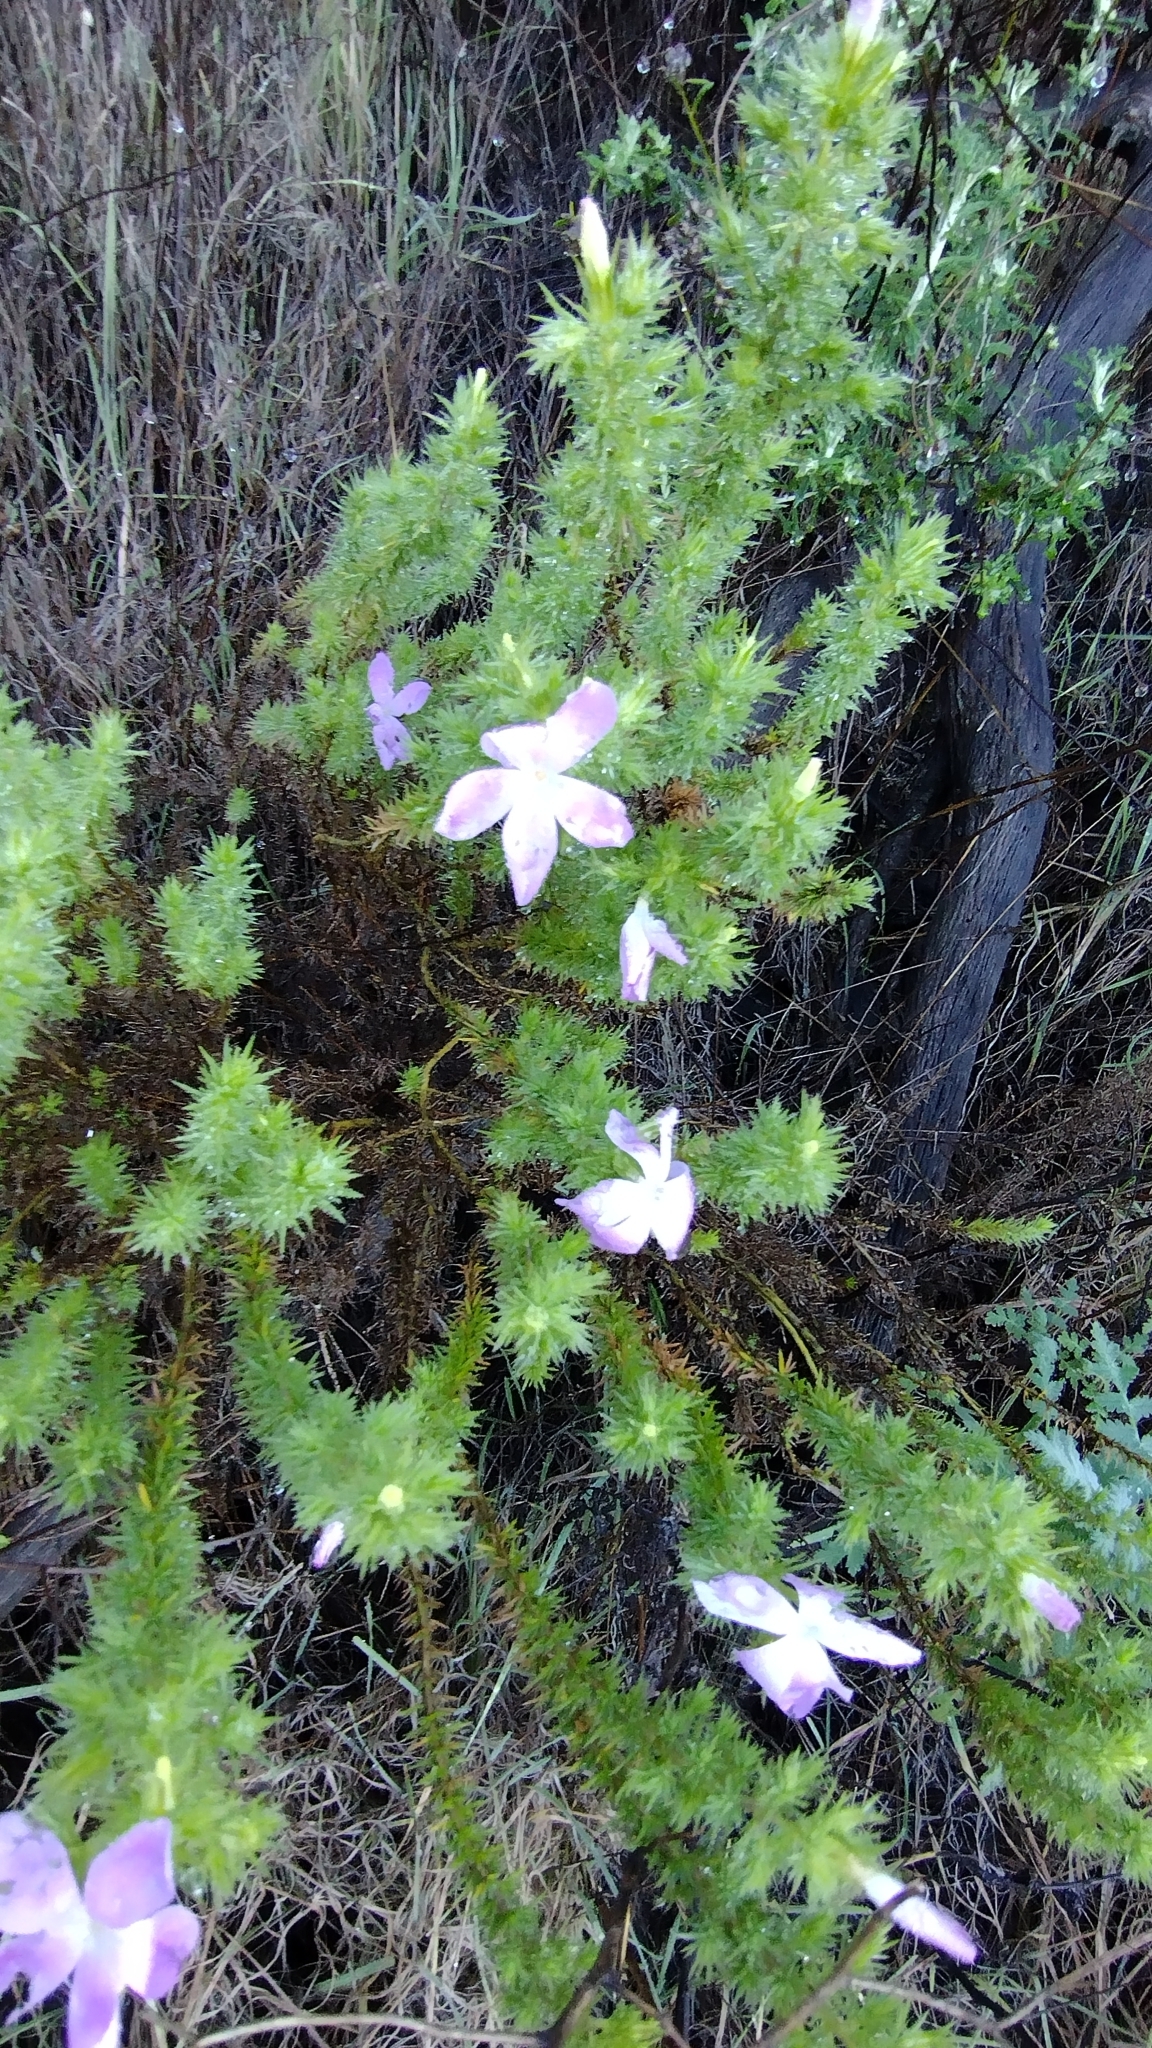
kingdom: Plantae
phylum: Tracheophyta
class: Magnoliopsida
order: Ericales
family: Polemoniaceae
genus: Linanthus
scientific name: Linanthus californicus
